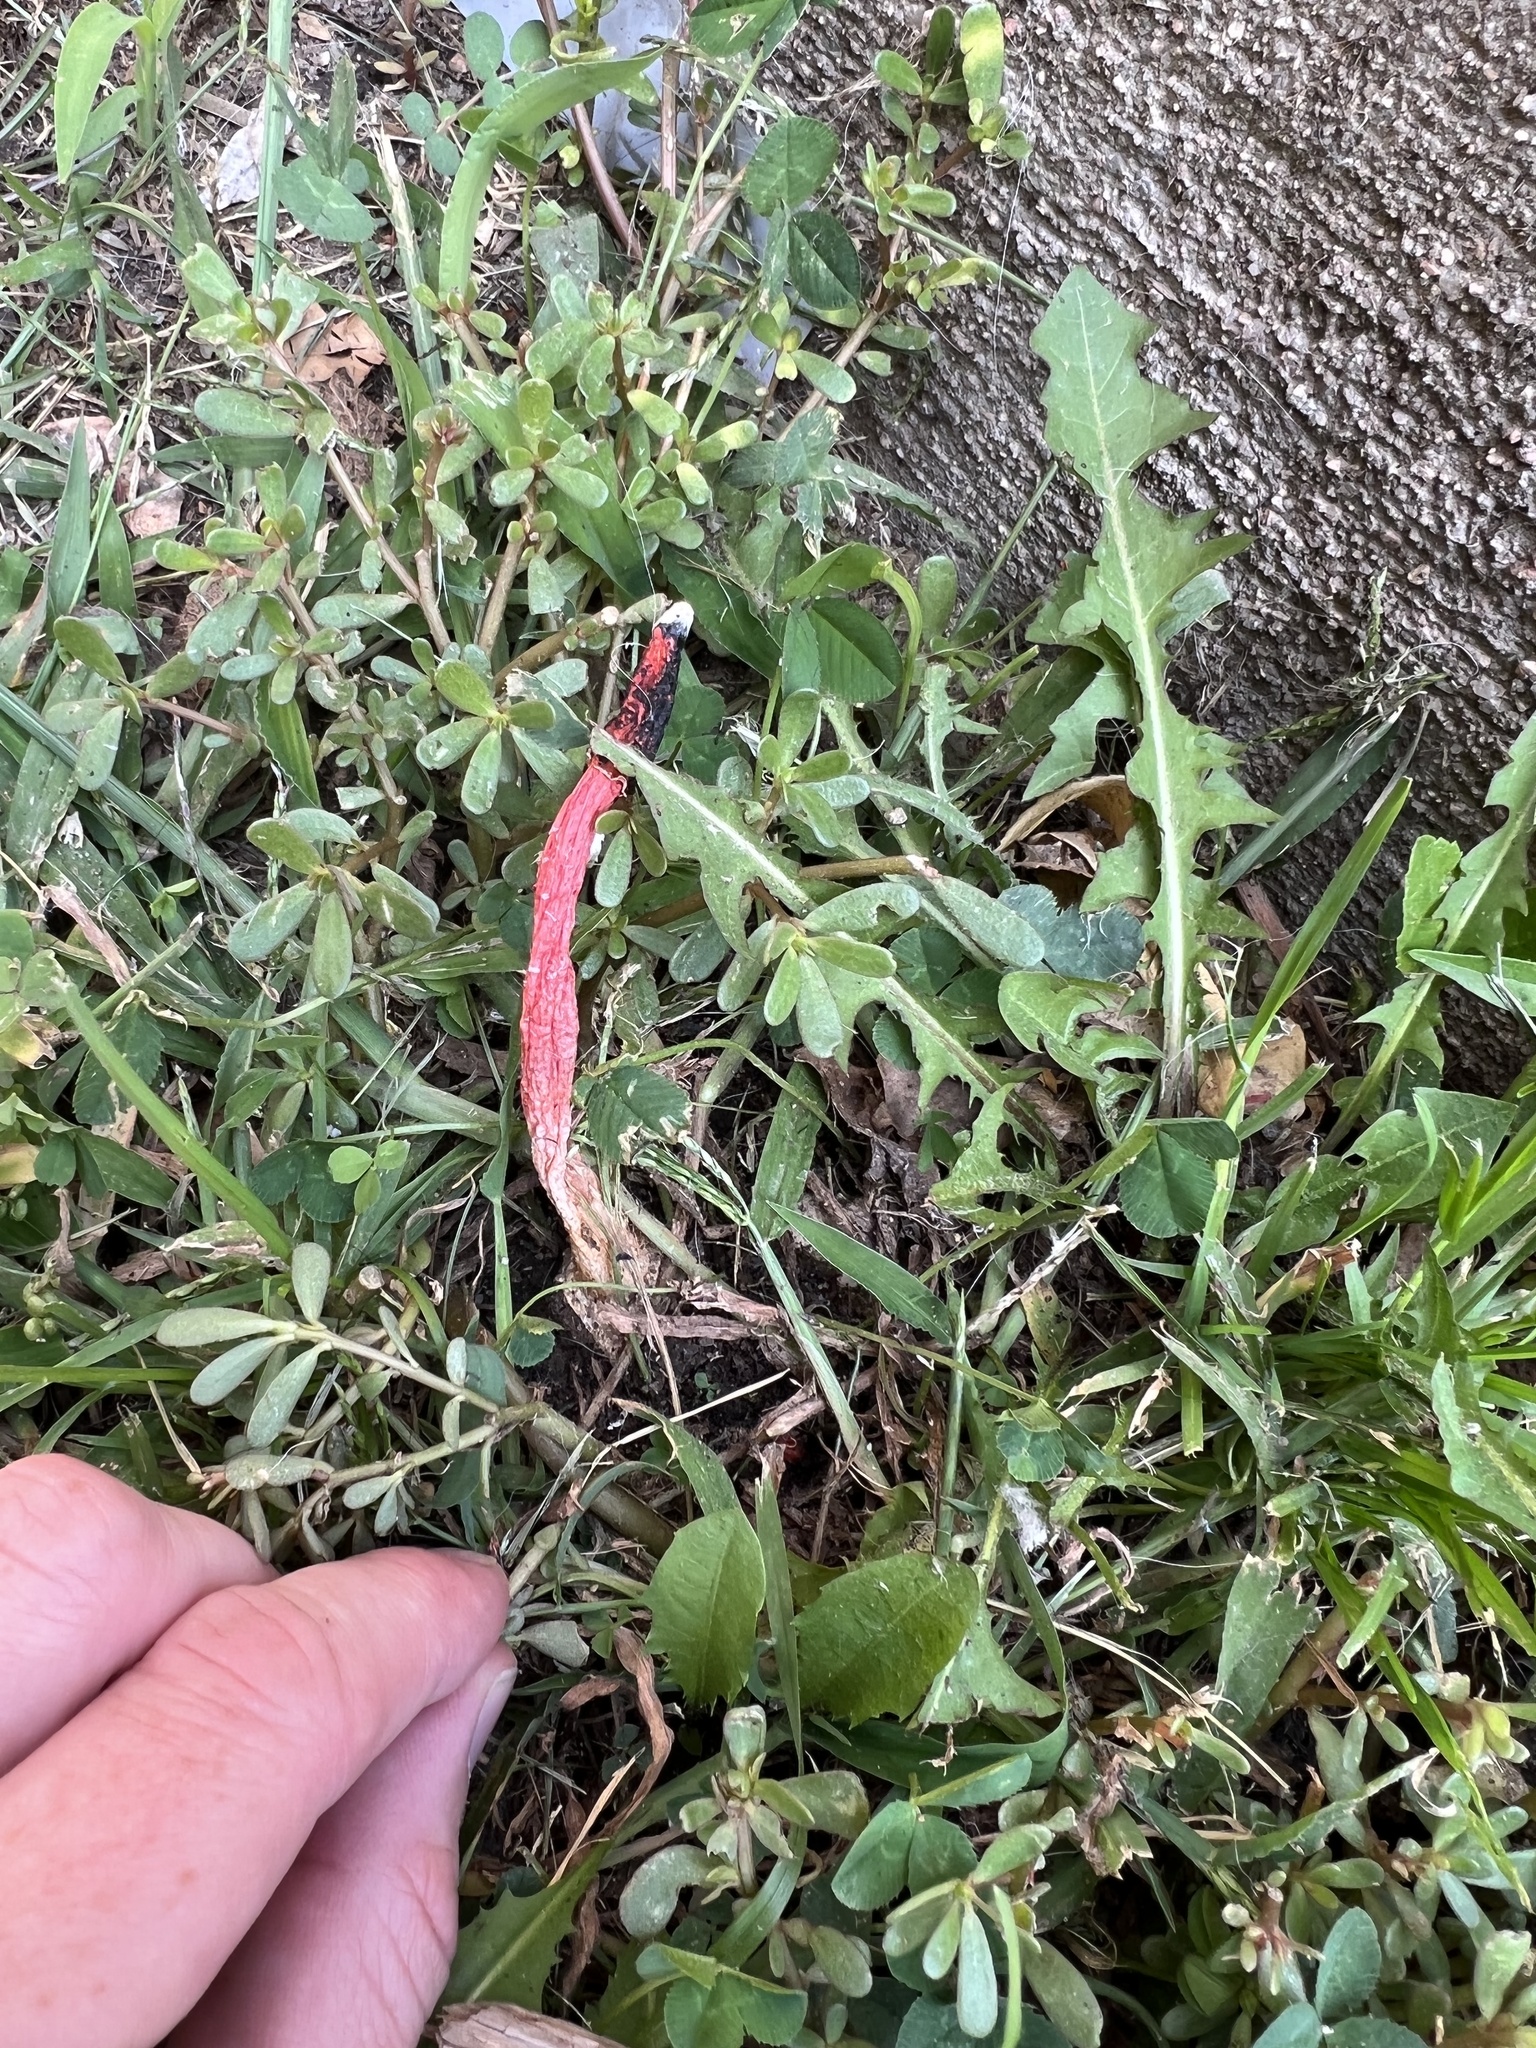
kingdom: Fungi
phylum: Basidiomycota
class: Agaricomycetes
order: Phallales
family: Phallaceae
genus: Phallus
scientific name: Phallus rugulosus
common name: Wrinkly stinkhorn
